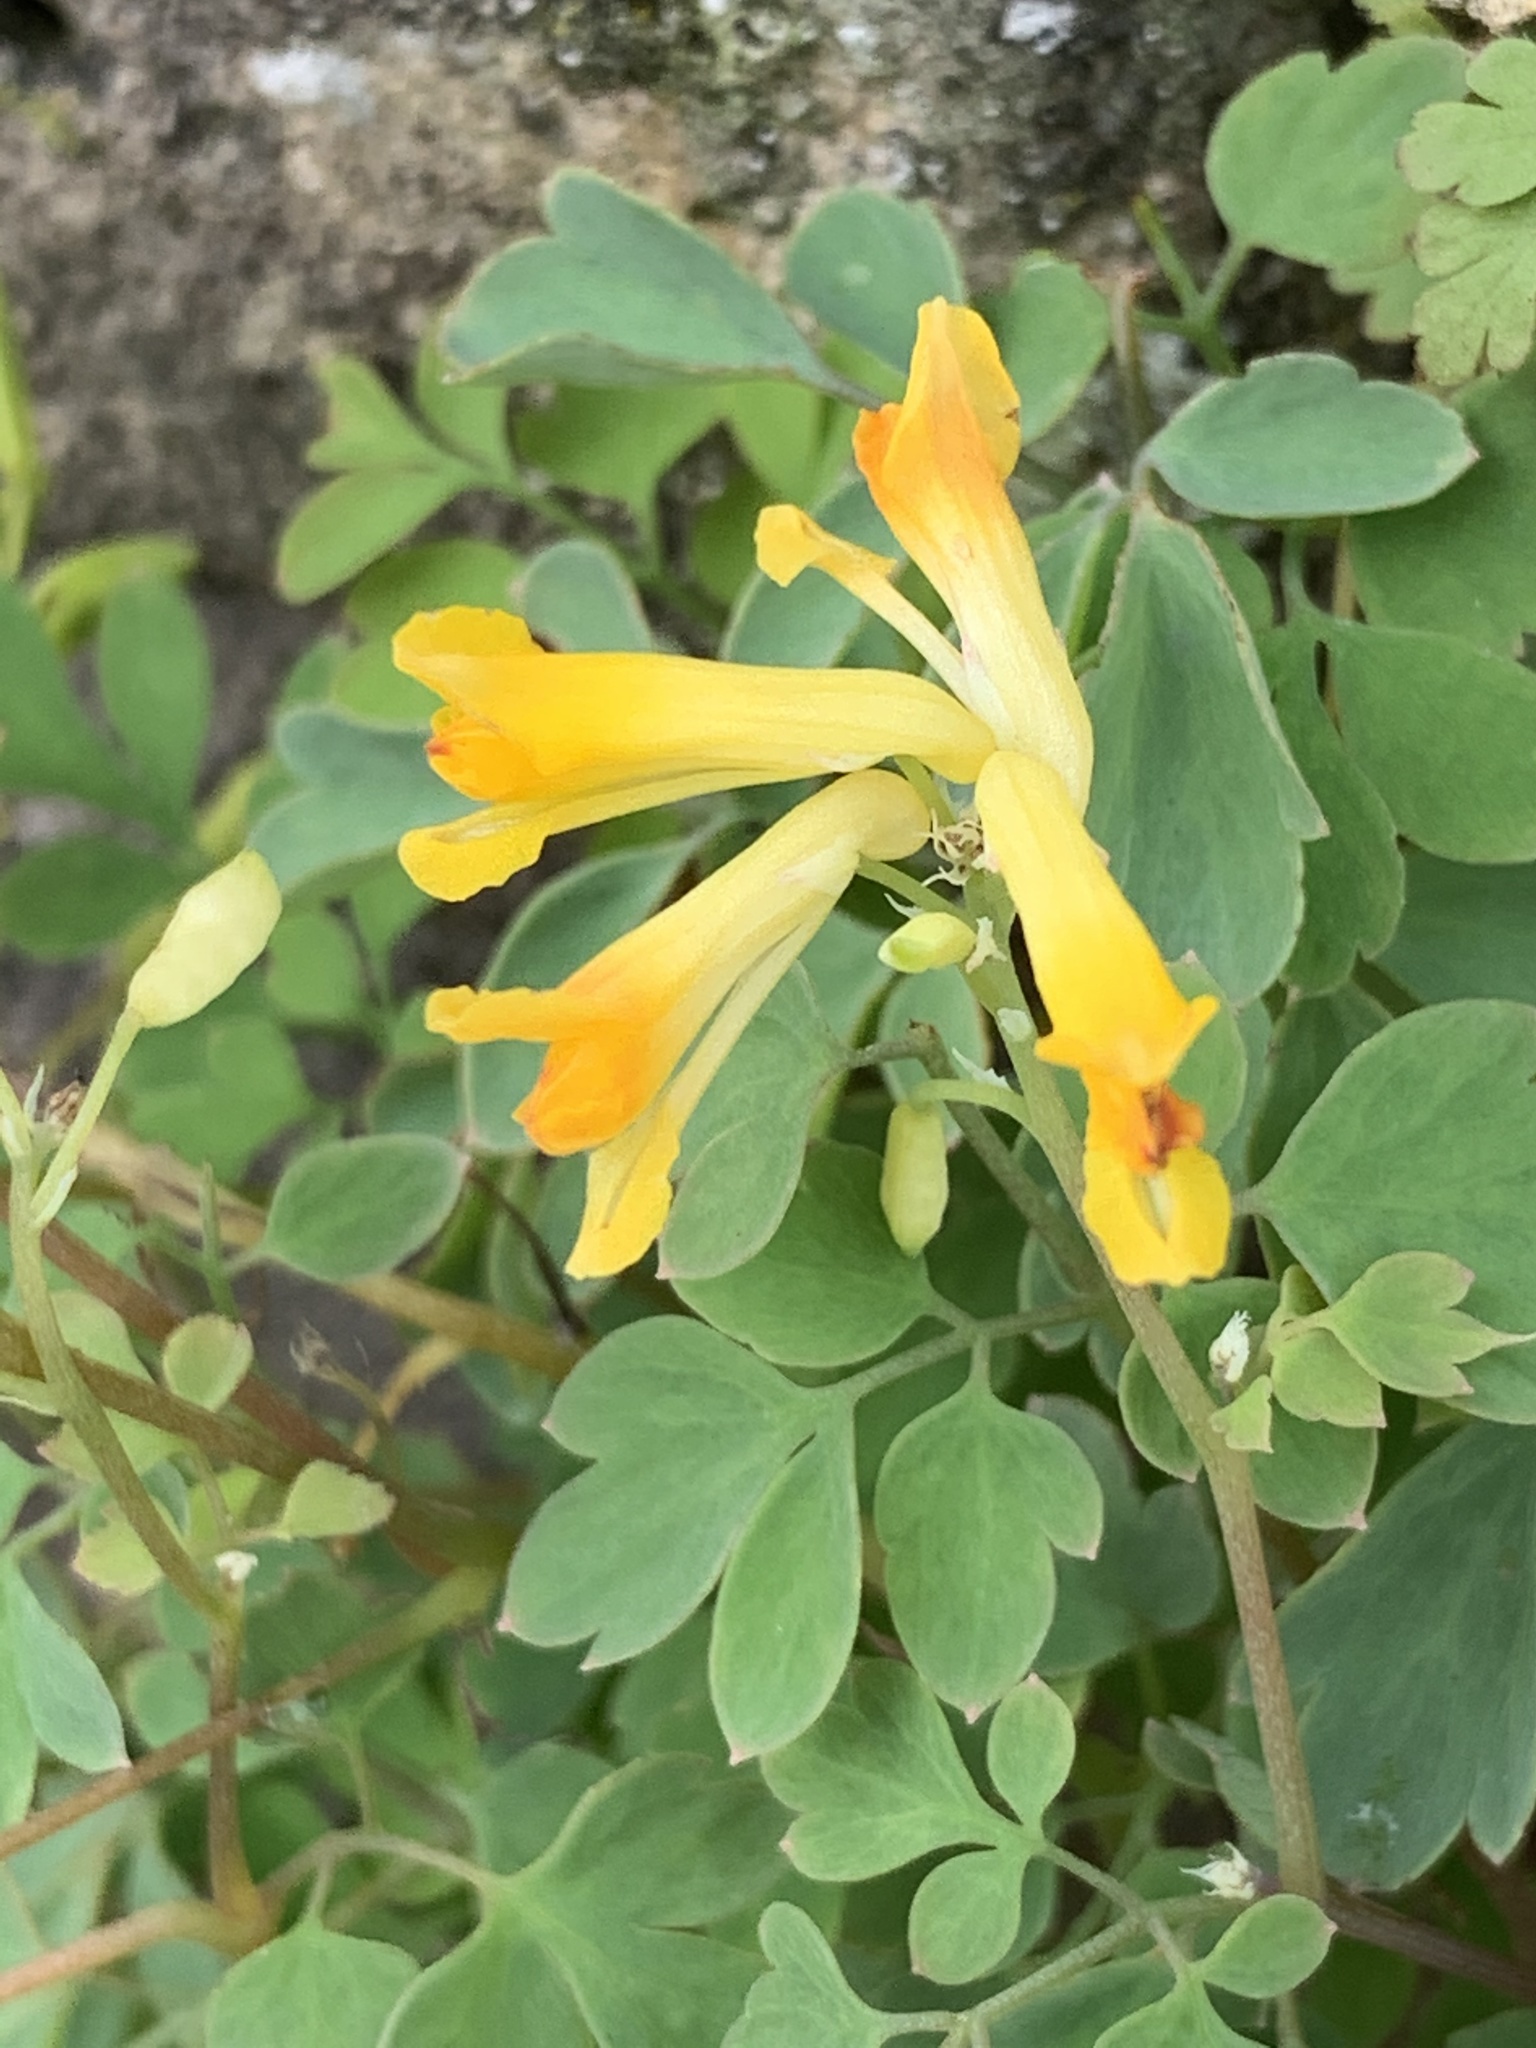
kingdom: Plantae
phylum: Tracheophyta
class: Magnoliopsida
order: Ranunculales
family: Papaveraceae
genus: Pseudofumaria
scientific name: Pseudofumaria lutea
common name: Yellow corydalis
